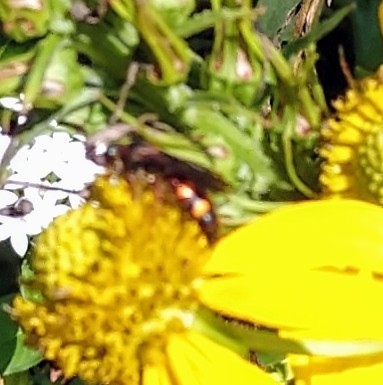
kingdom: Animalia
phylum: Arthropoda
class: Insecta
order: Hymenoptera
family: Scoliidae
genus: Scolia
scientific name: Scolia nobilitata
